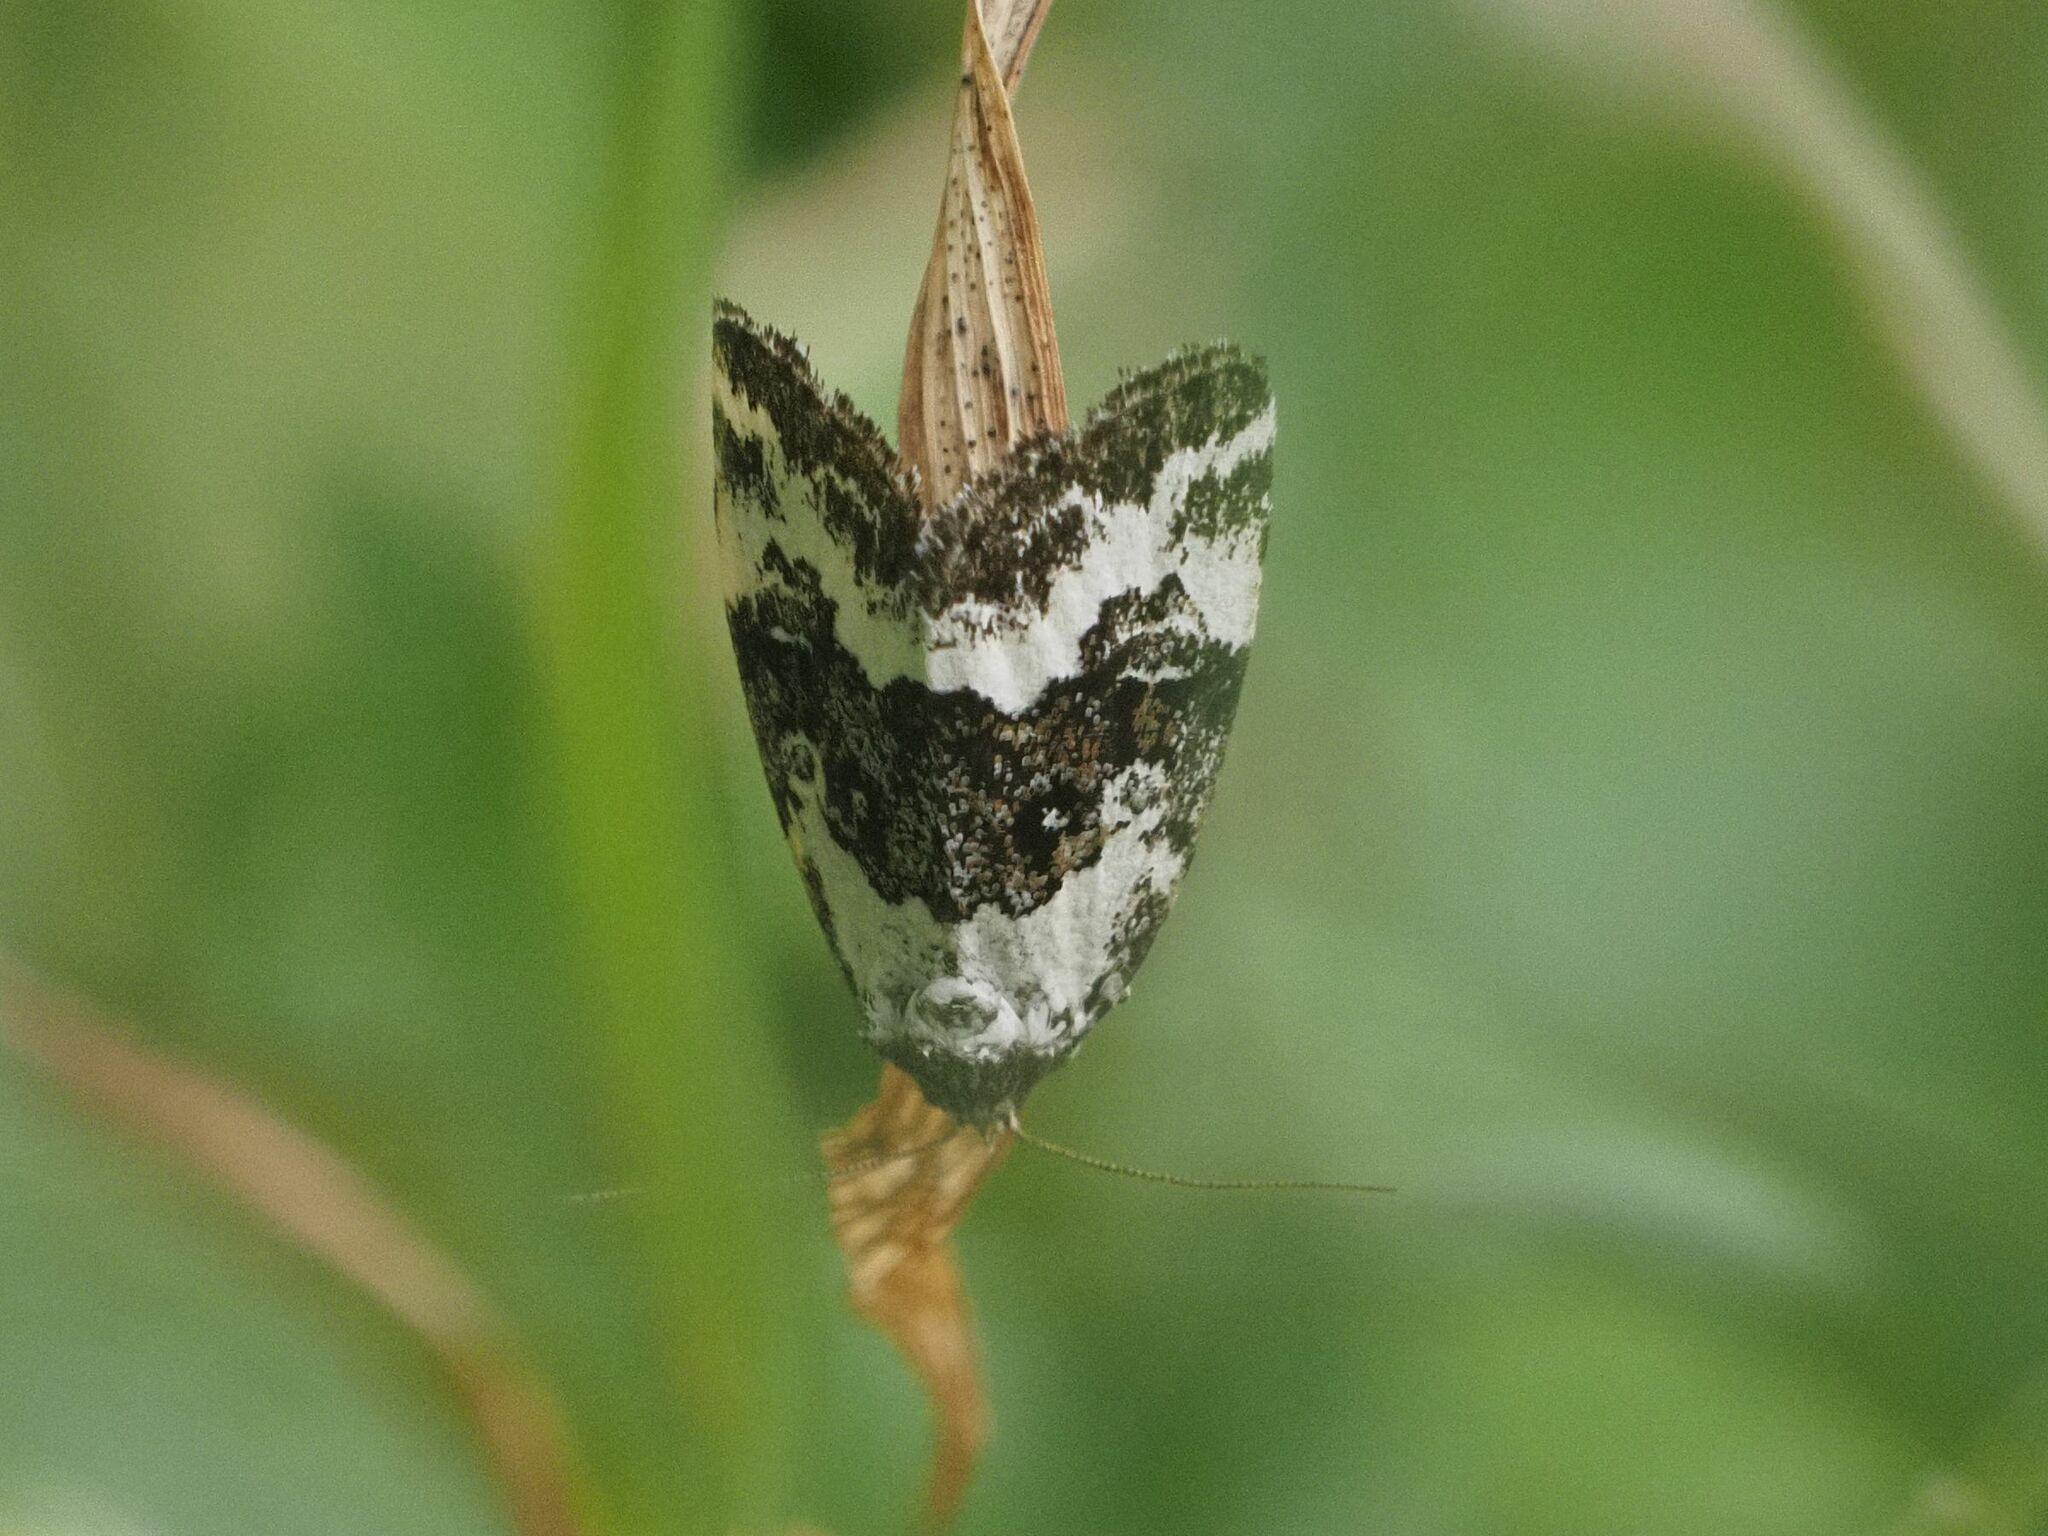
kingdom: Animalia
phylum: Arthropoda
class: Insecta
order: Lepidoptera
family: Noctuidae
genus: Deltote
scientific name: Deltote deceptoria
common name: Pretty marbled
